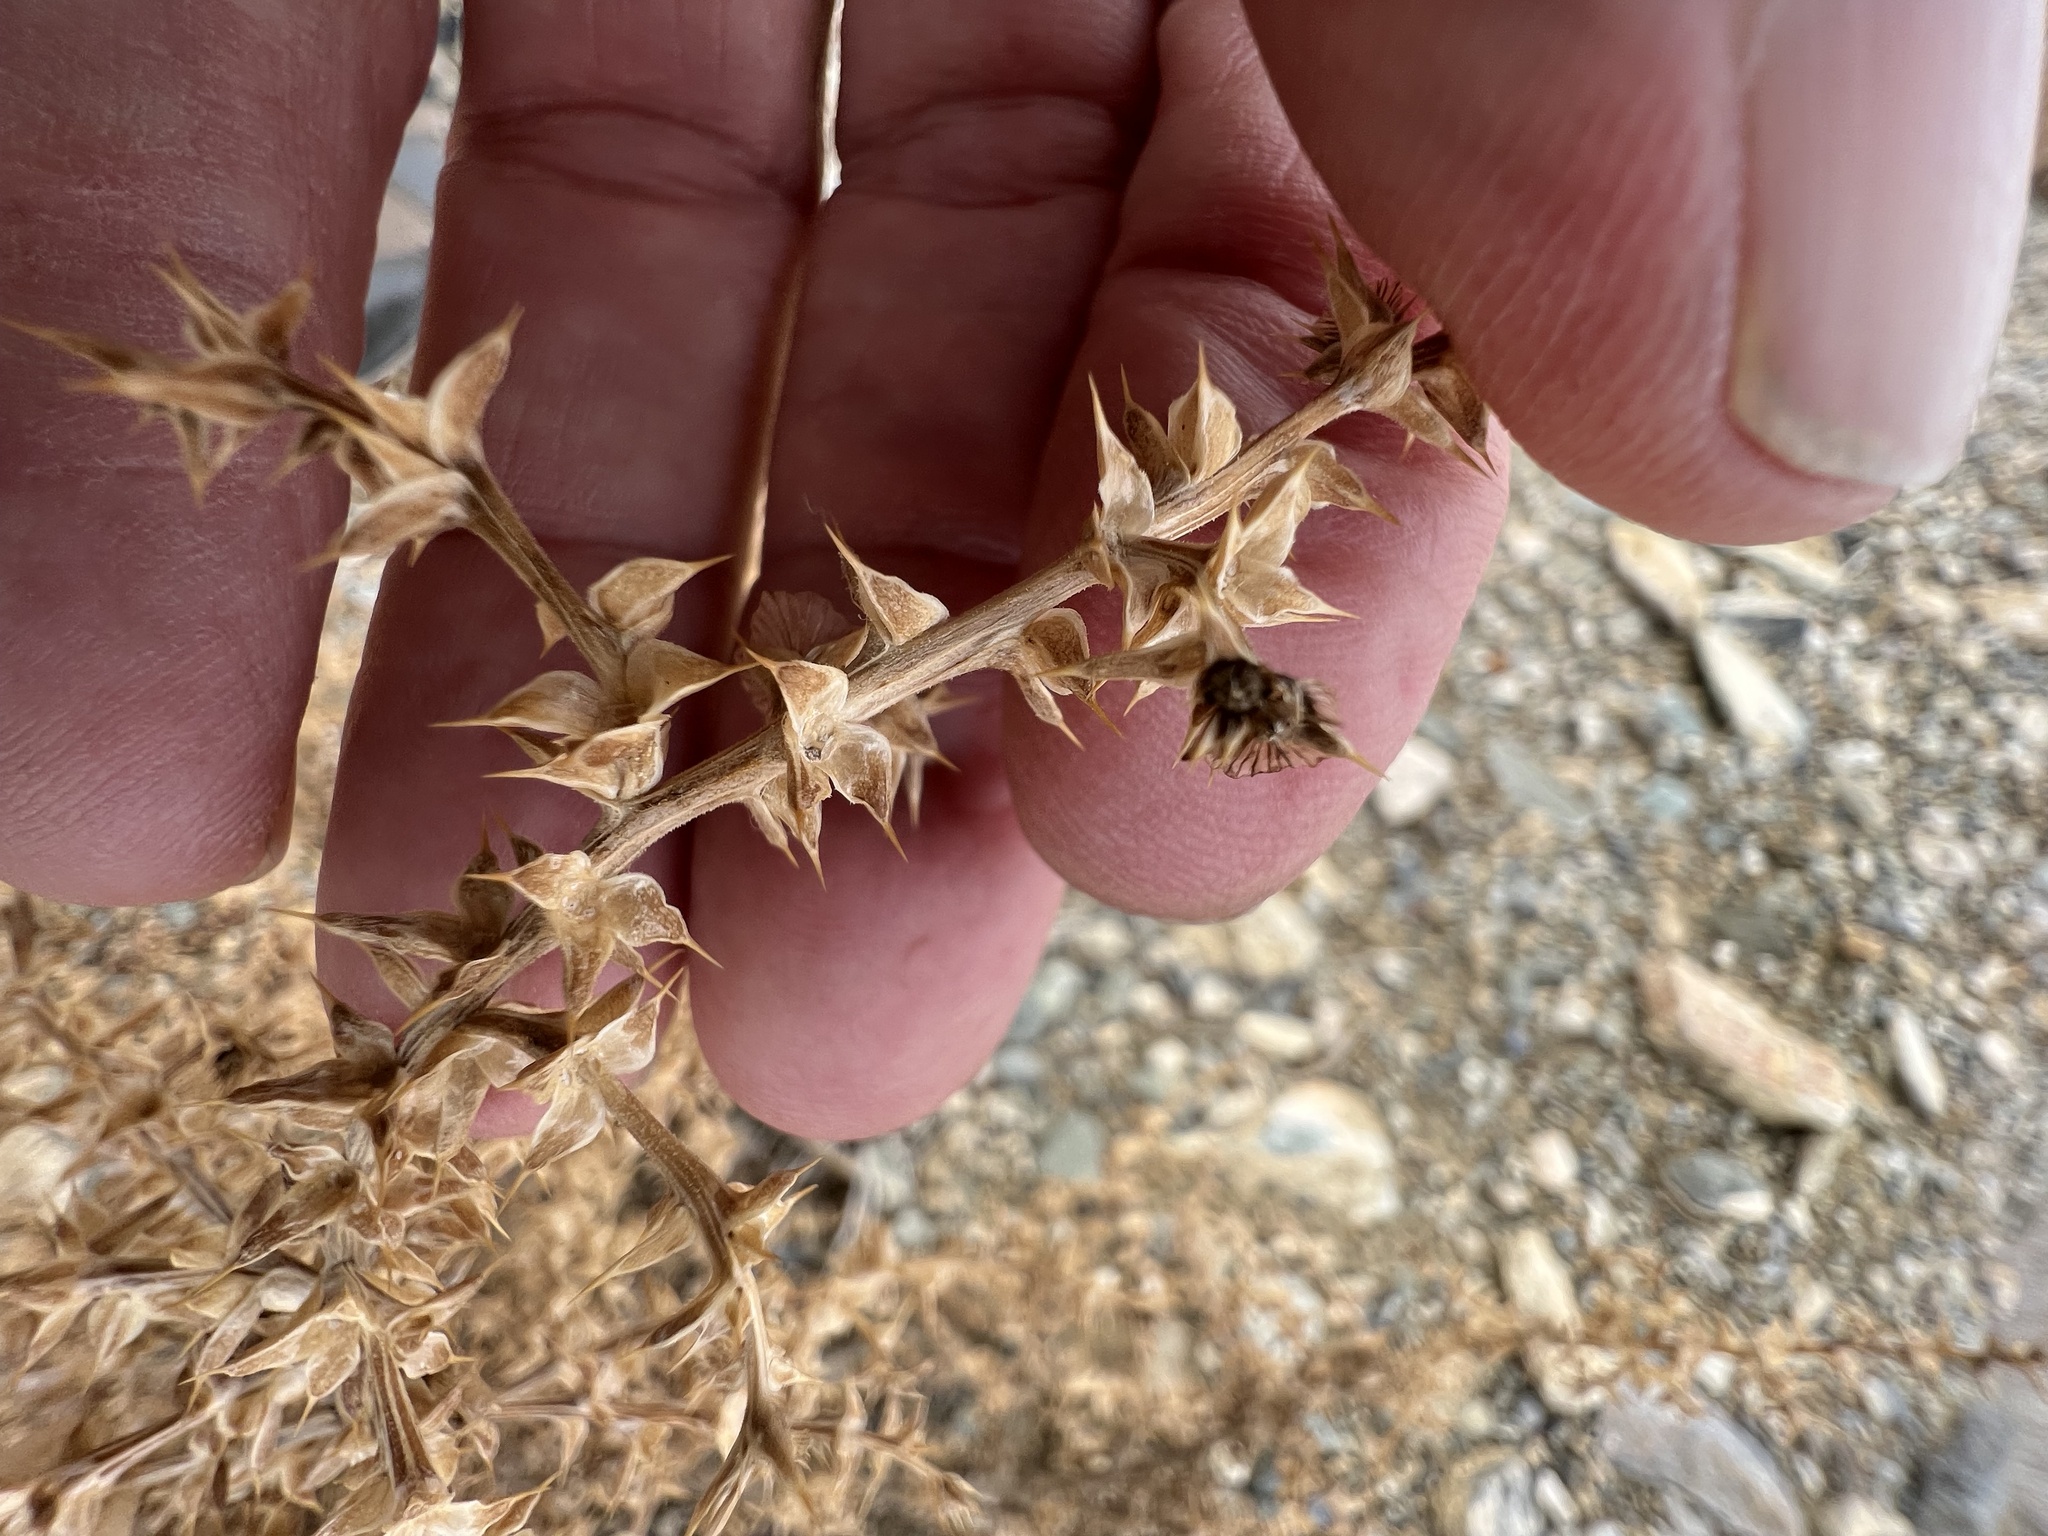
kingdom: Plantae
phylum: Tracheophyta
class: Magnoliopsida
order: Caryophyllales
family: Amaranthaceae
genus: Salsola
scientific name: Salsola tragus
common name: Prickly russian thistle
